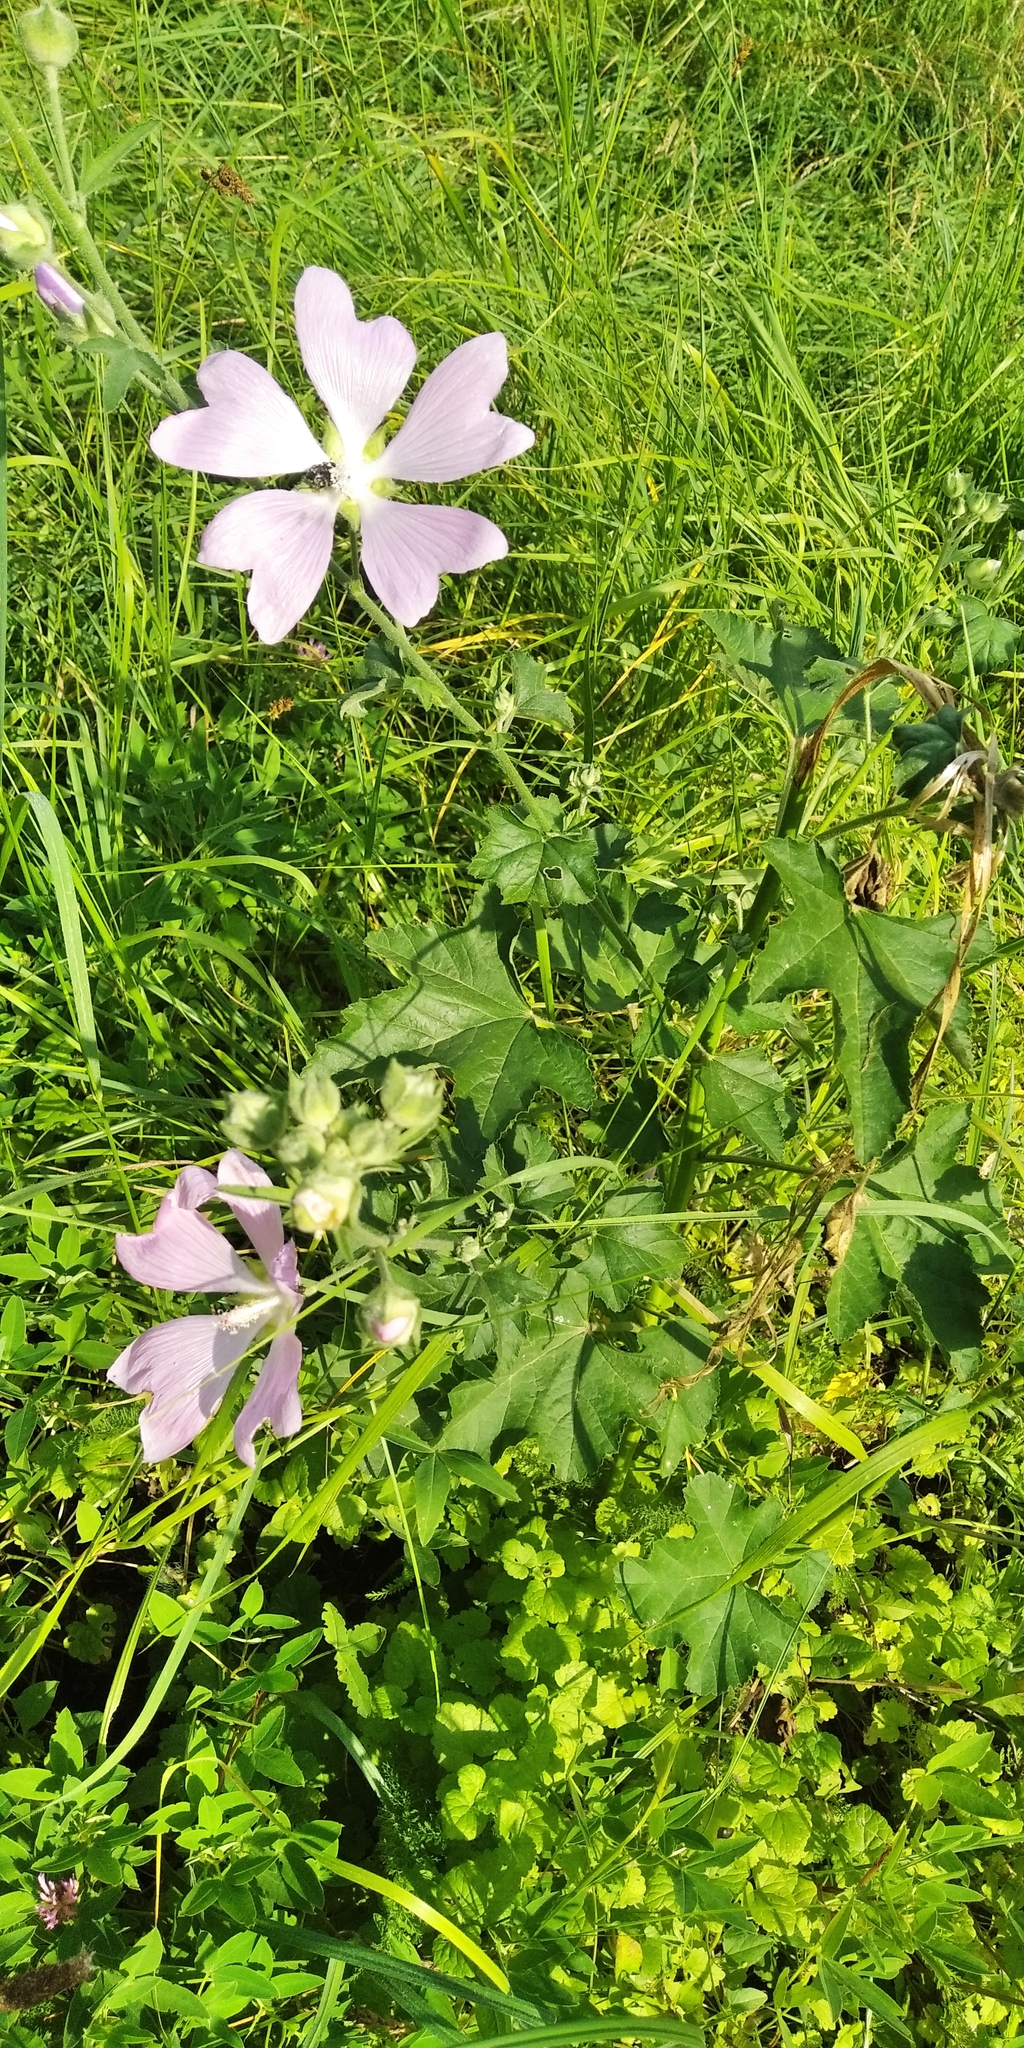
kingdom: Plantae
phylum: Tracheophyta
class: Magnoliopsida
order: Malvales
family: Malvaceae
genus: Malva
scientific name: Malva thuringiaca
